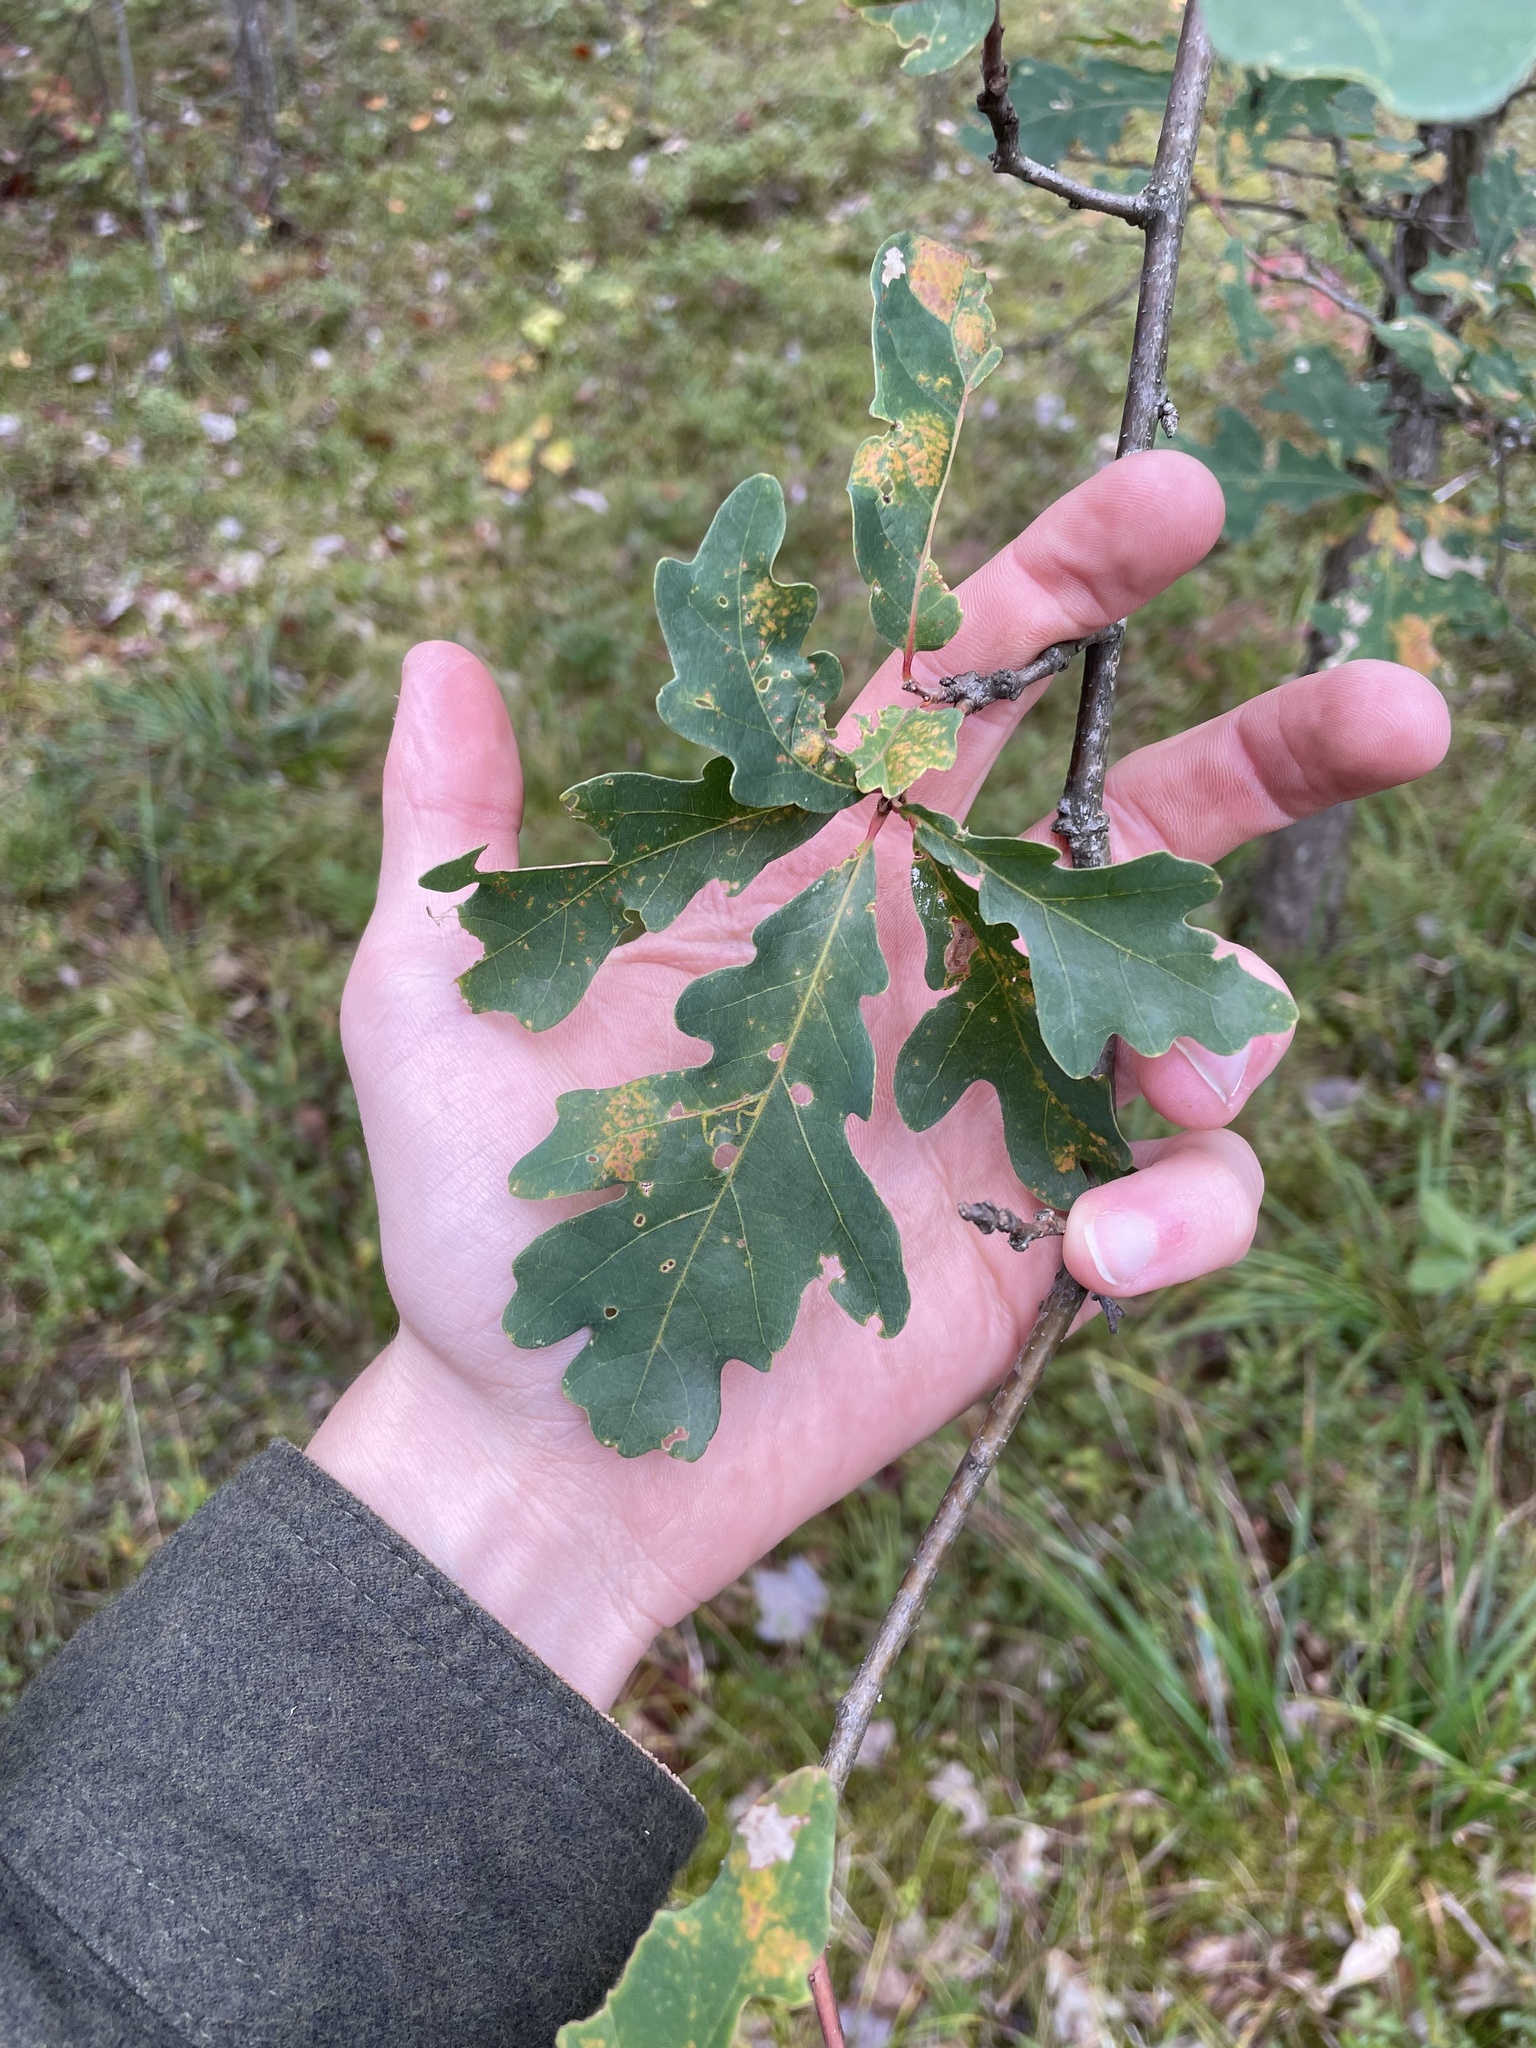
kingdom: Plantae
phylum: Tracheophyta
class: Magnoliopsida
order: Fagales
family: Fagaceae
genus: Quercus
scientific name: Quercus alba
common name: White oak
